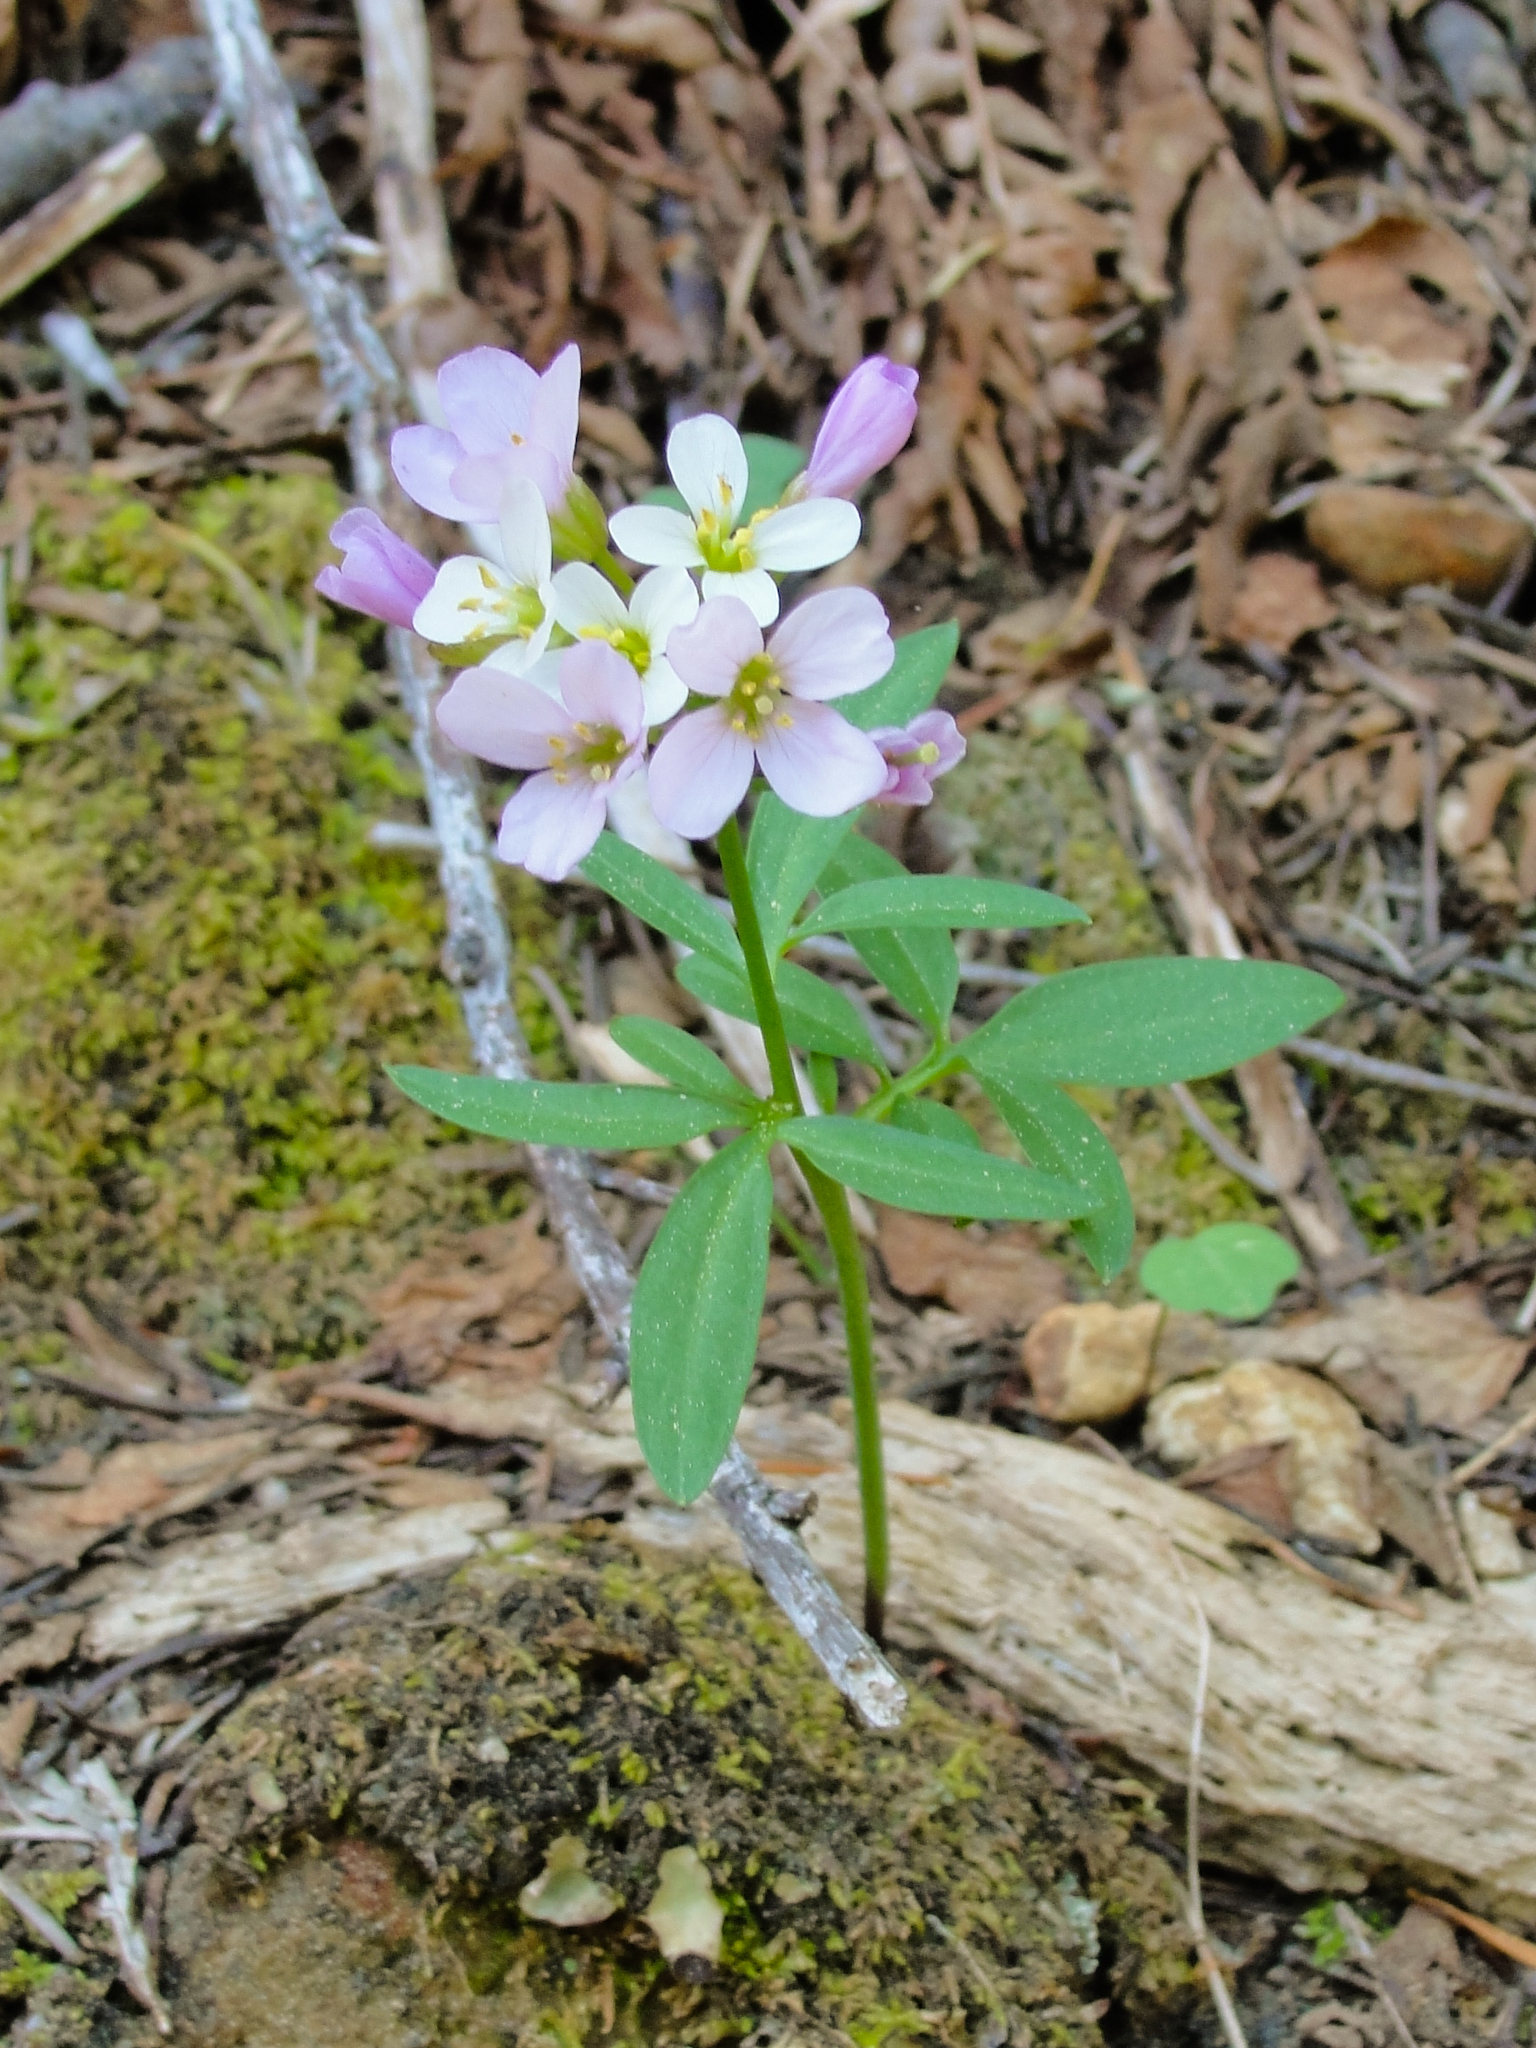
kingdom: Plantae
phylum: Tracheophyta
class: Magnoliopsida
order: Brassicales
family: Brassicaceae
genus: Cardamine
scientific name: Cardamine nuttallii
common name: Nuttall's toothwort
